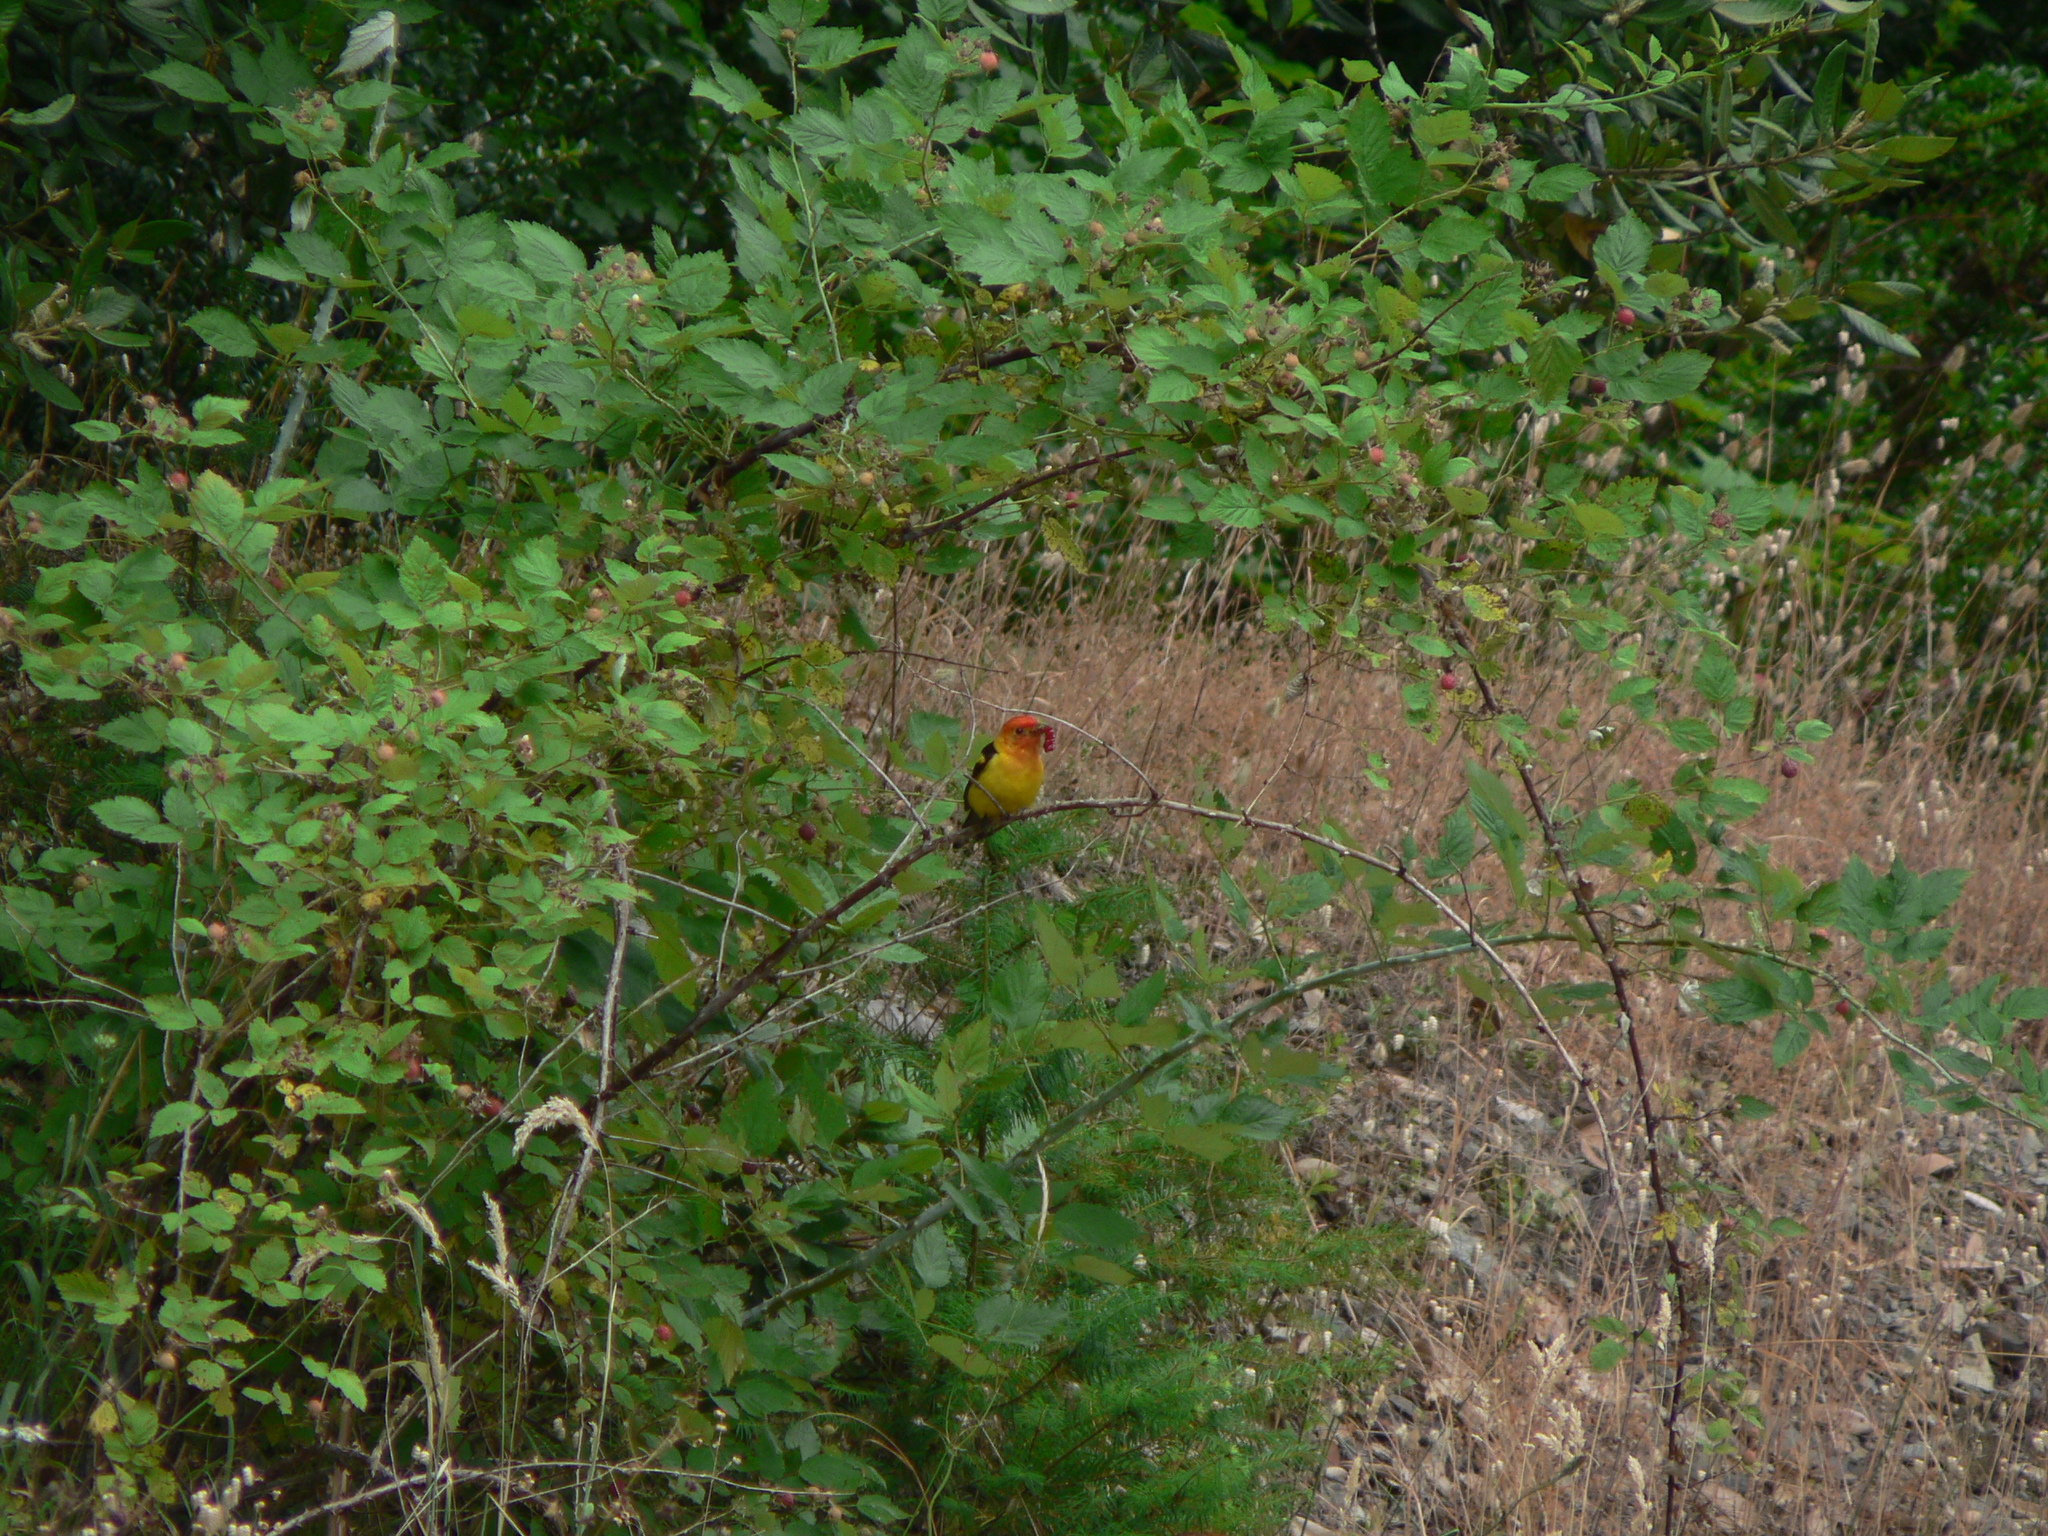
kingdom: Animalia
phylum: Chordata
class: Aves
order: Passeriformes
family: Cardinalidae
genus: Piranga
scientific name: Piranga ludoviciana
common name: Western tanager
